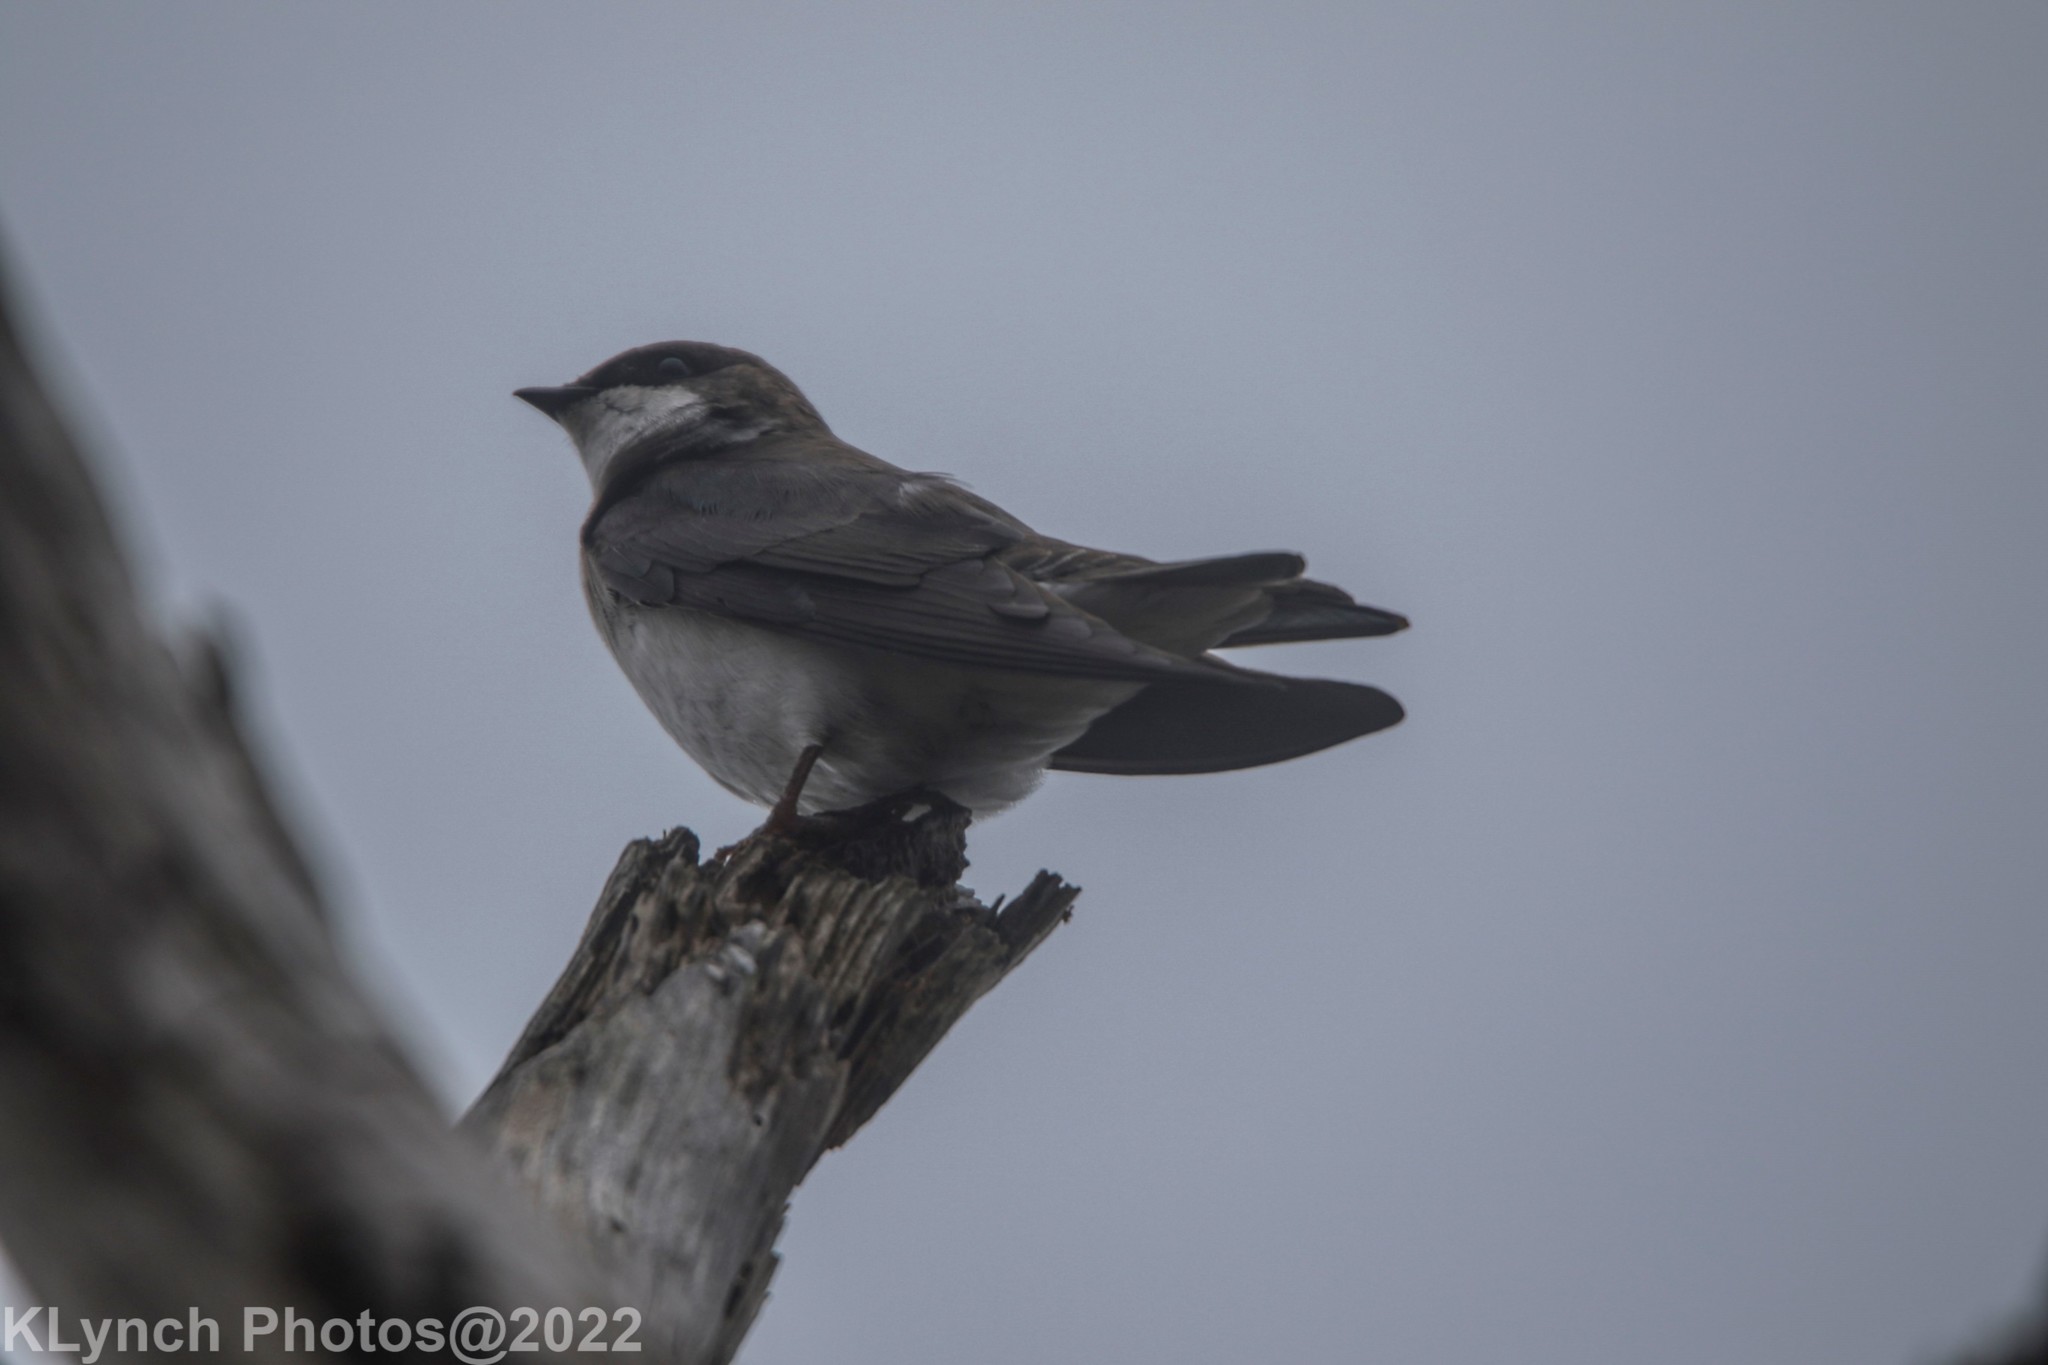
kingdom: Animalia
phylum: Chordata
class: Aves
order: Passeriformes
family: Hirundinidae
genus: Tachycineta
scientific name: Tachycineta bicolor
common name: Tree swallow
